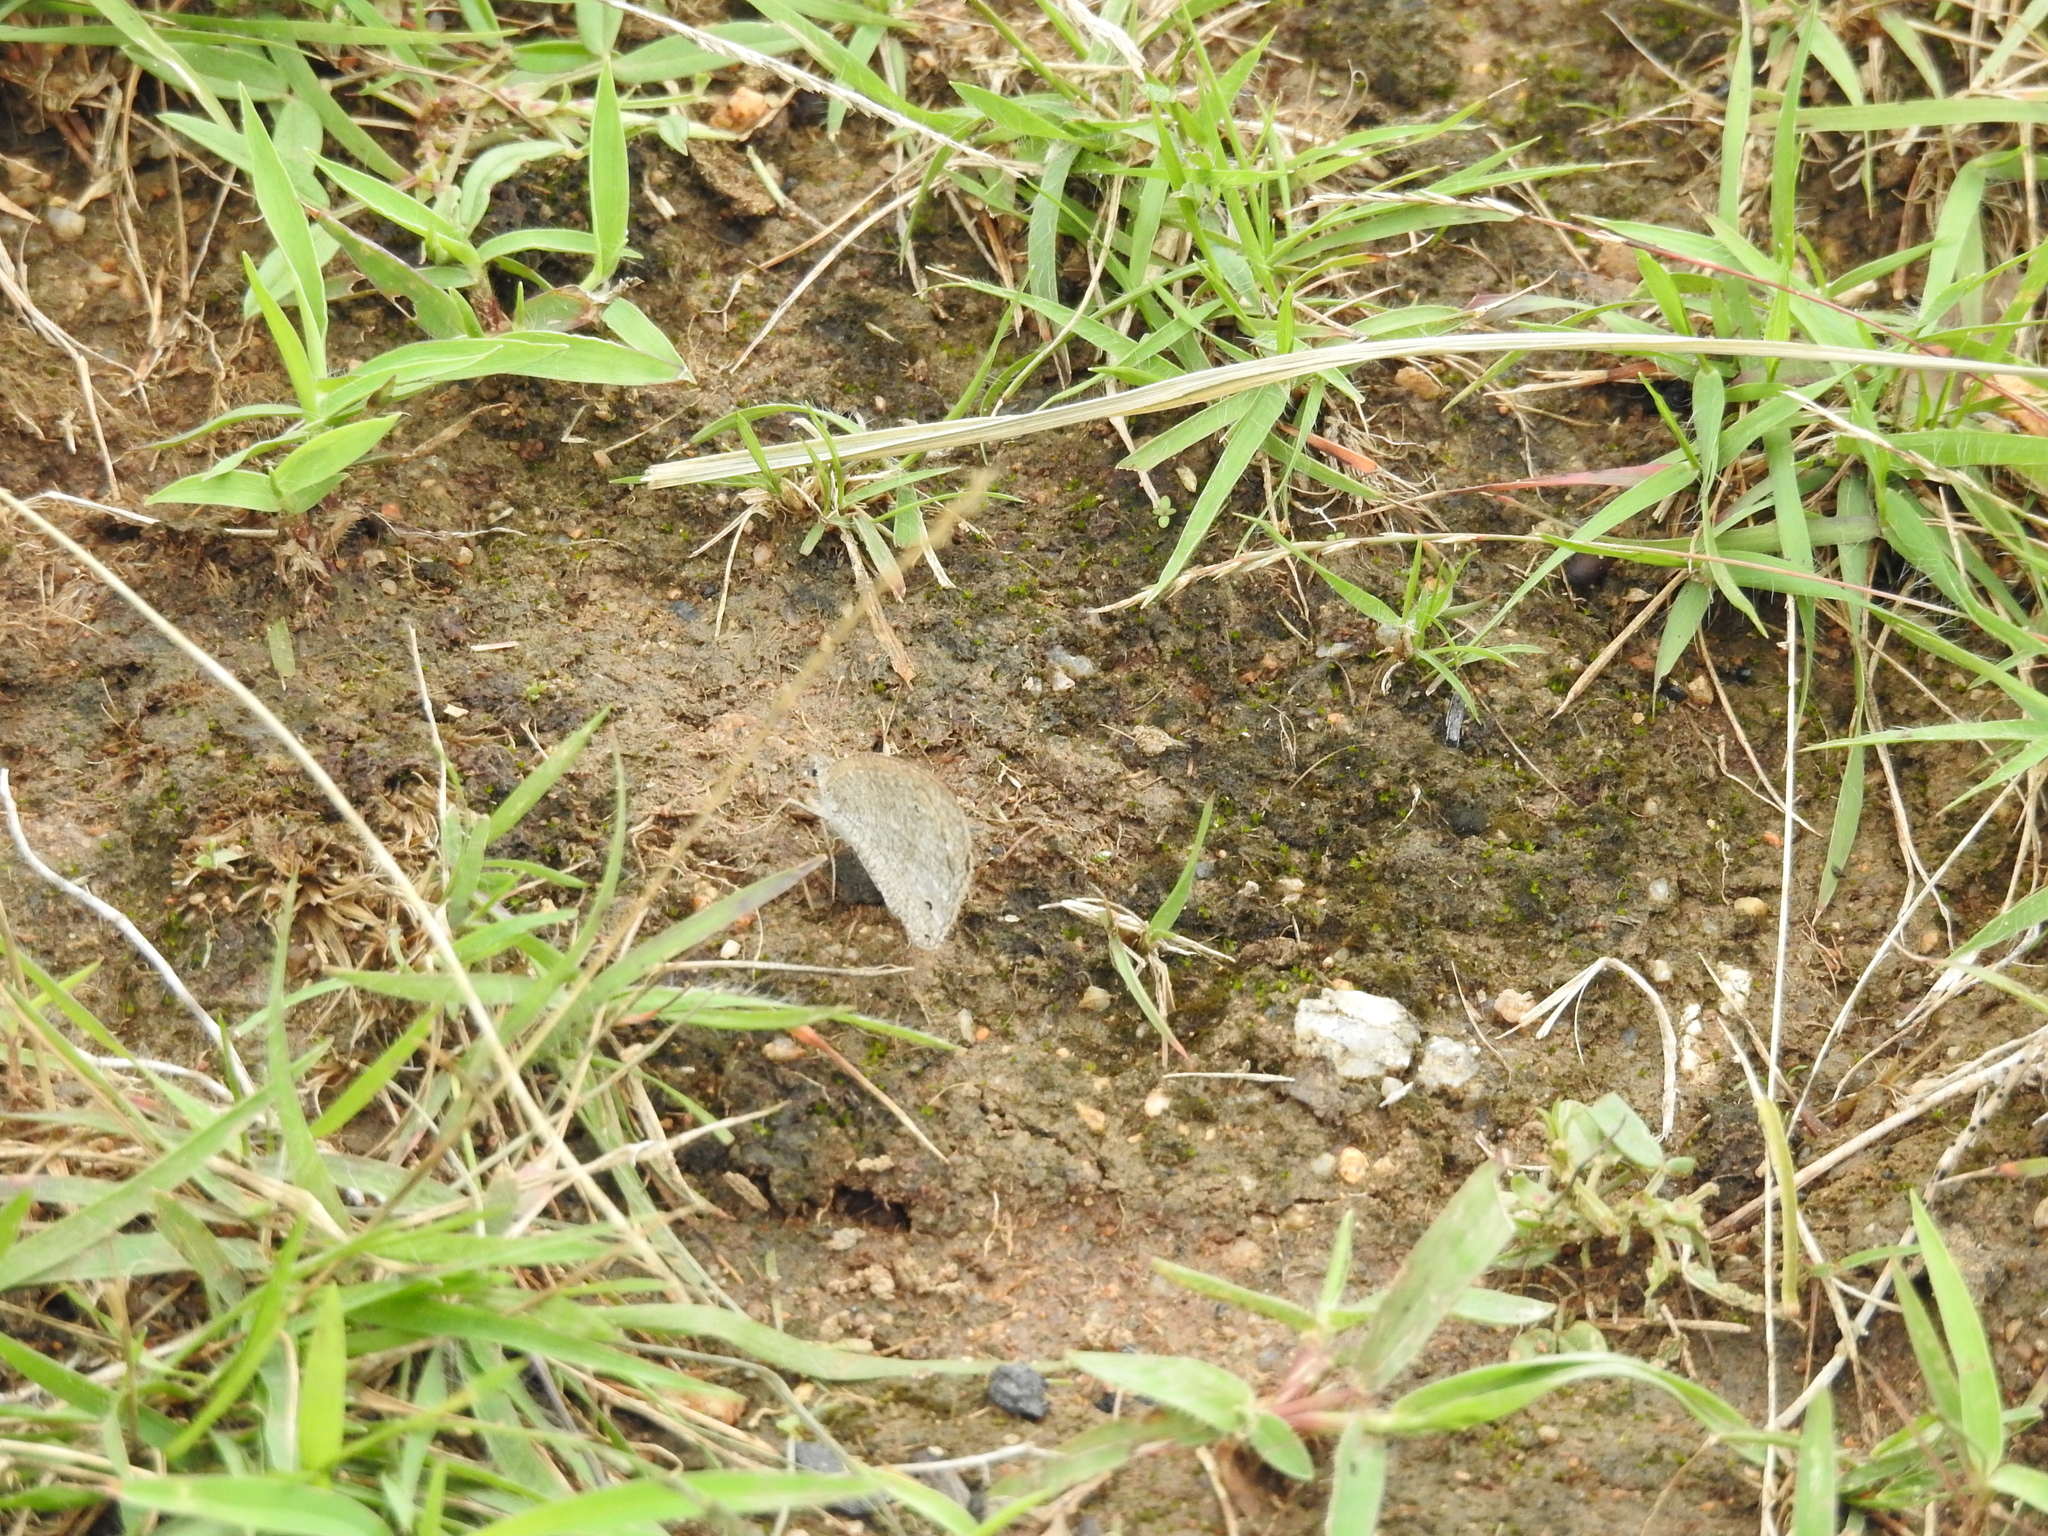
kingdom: Animalia
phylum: Arthropoda
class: Insecta
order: Lepidoptera
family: Nymphalidae
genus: Ypthima
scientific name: Ypthima asterope
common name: African ringlet
